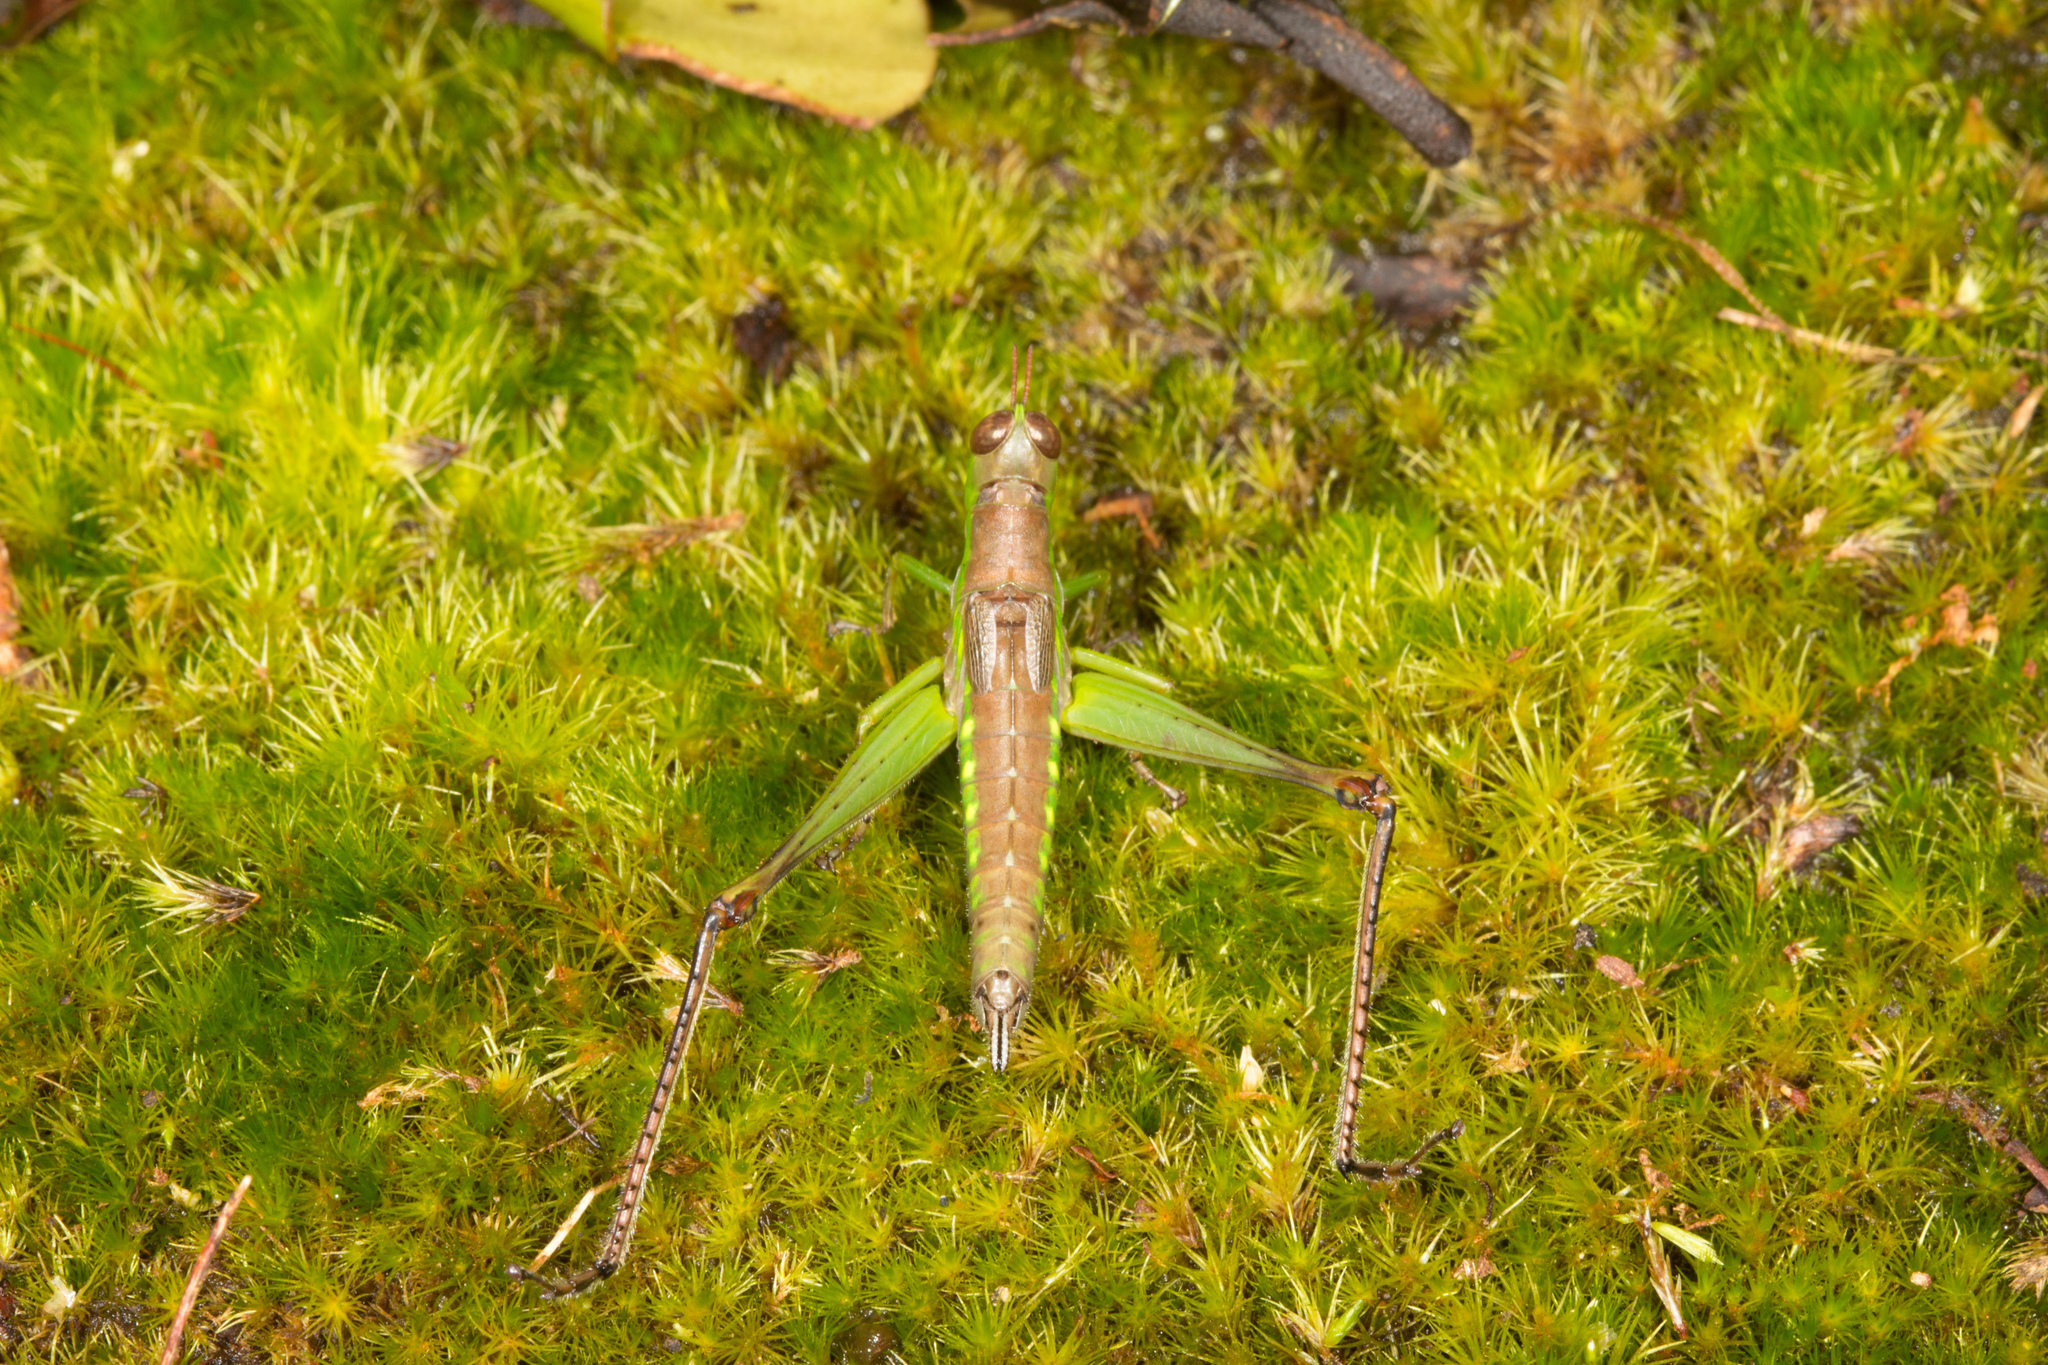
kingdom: Animalia
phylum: Arthropoda
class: Insecta
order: Orthoptera
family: Euschmidtiidae
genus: Euschmidtia
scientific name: Euschmidtia cruciformis
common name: Seychelles monkey grasshopper
